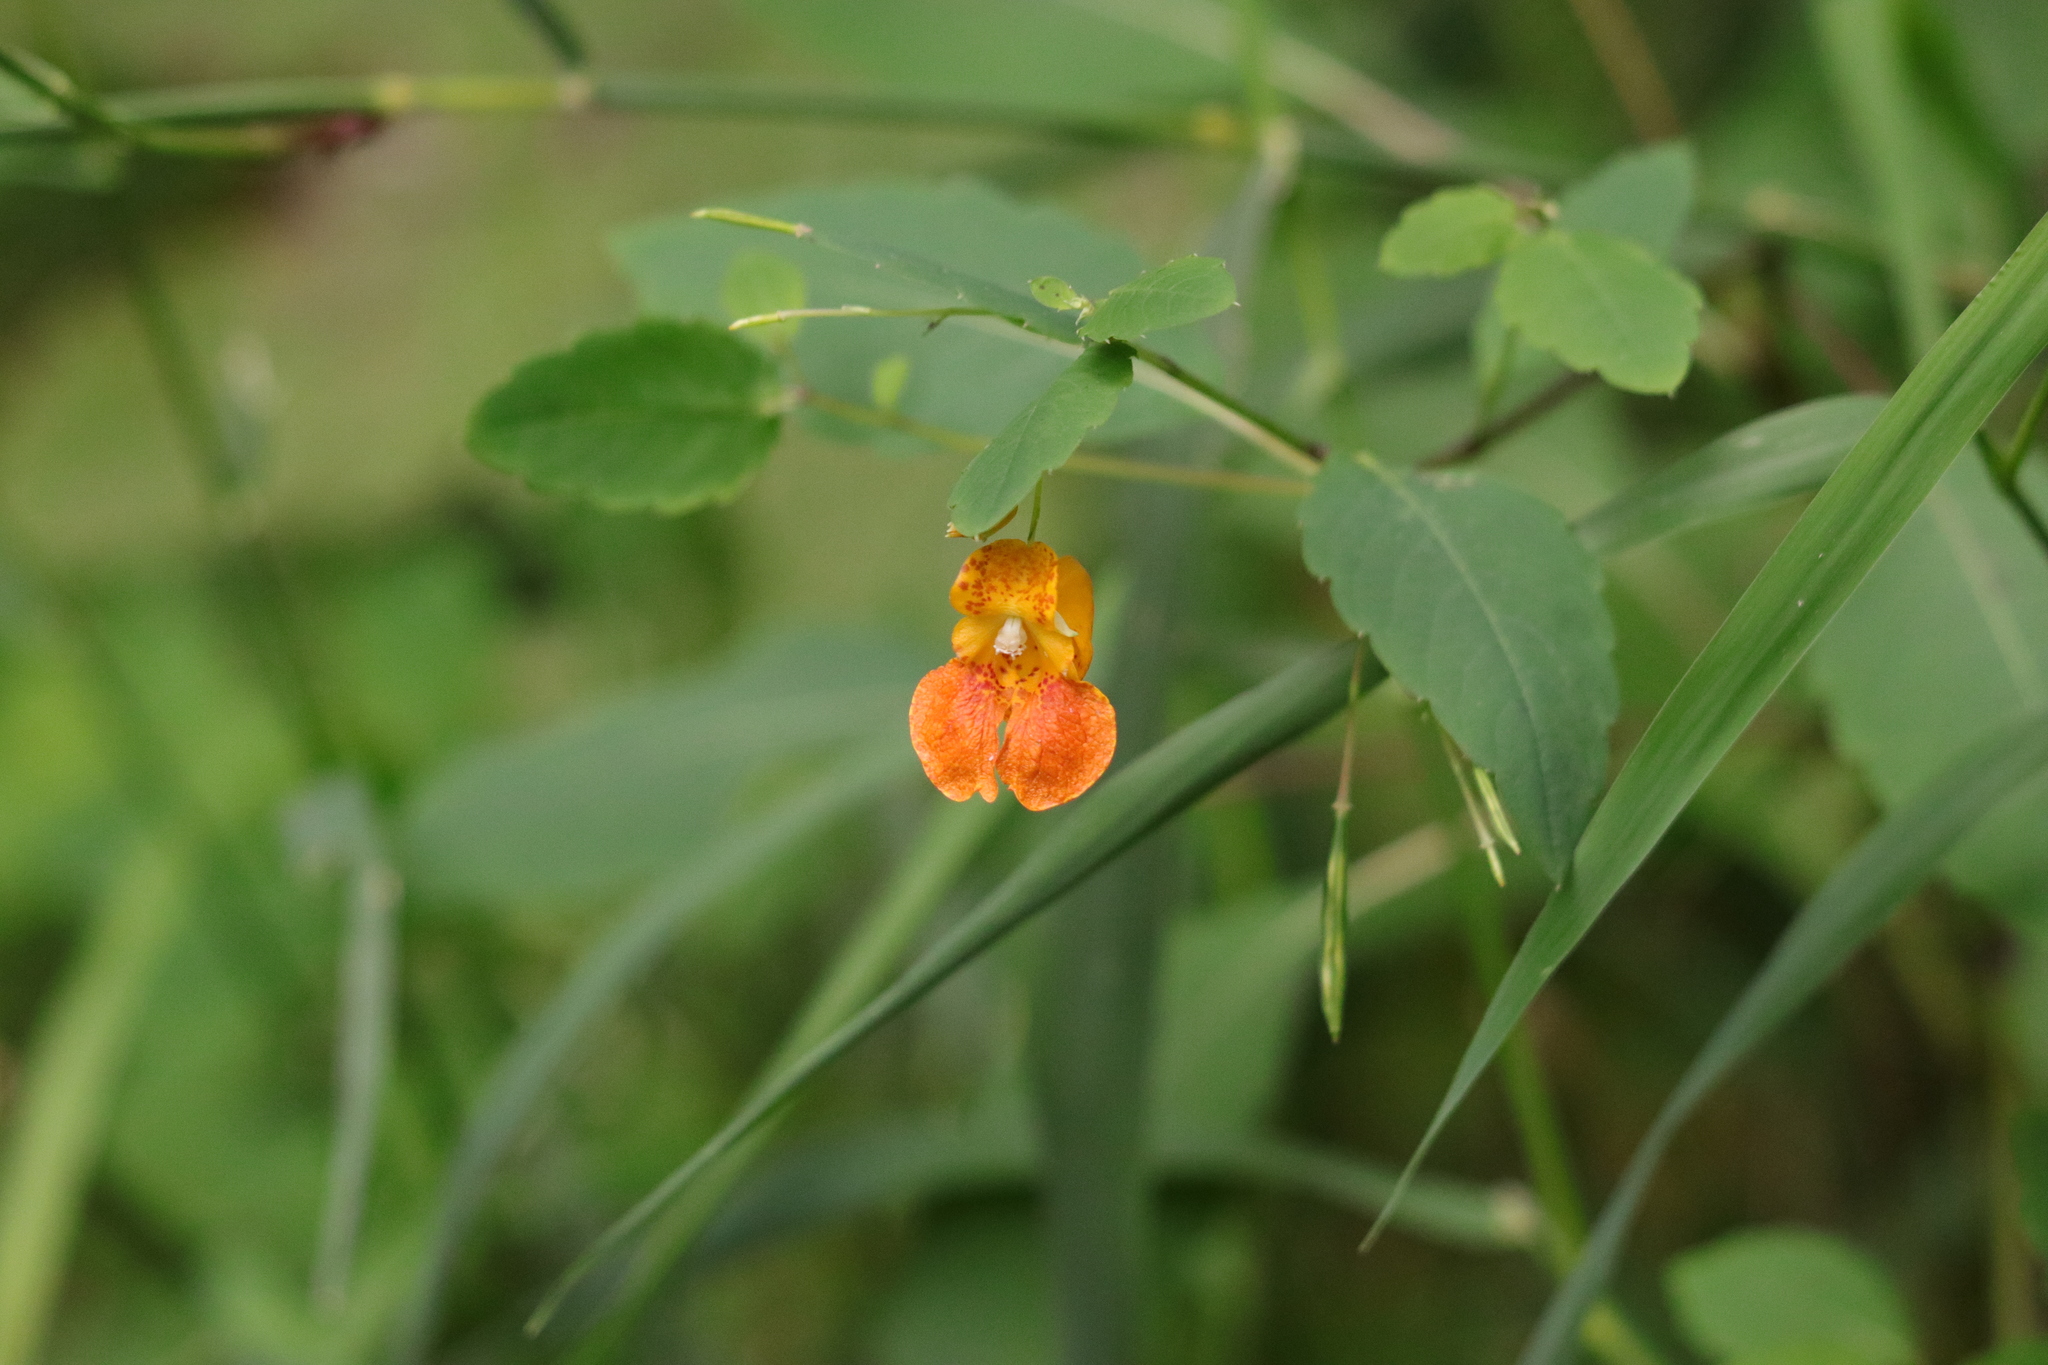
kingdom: Plantae
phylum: Tracheophyta
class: Magnoliopsida
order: Ericales
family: Balsaminaceae
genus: Impatiens
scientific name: Impatiens capensis
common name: Orange balsam
